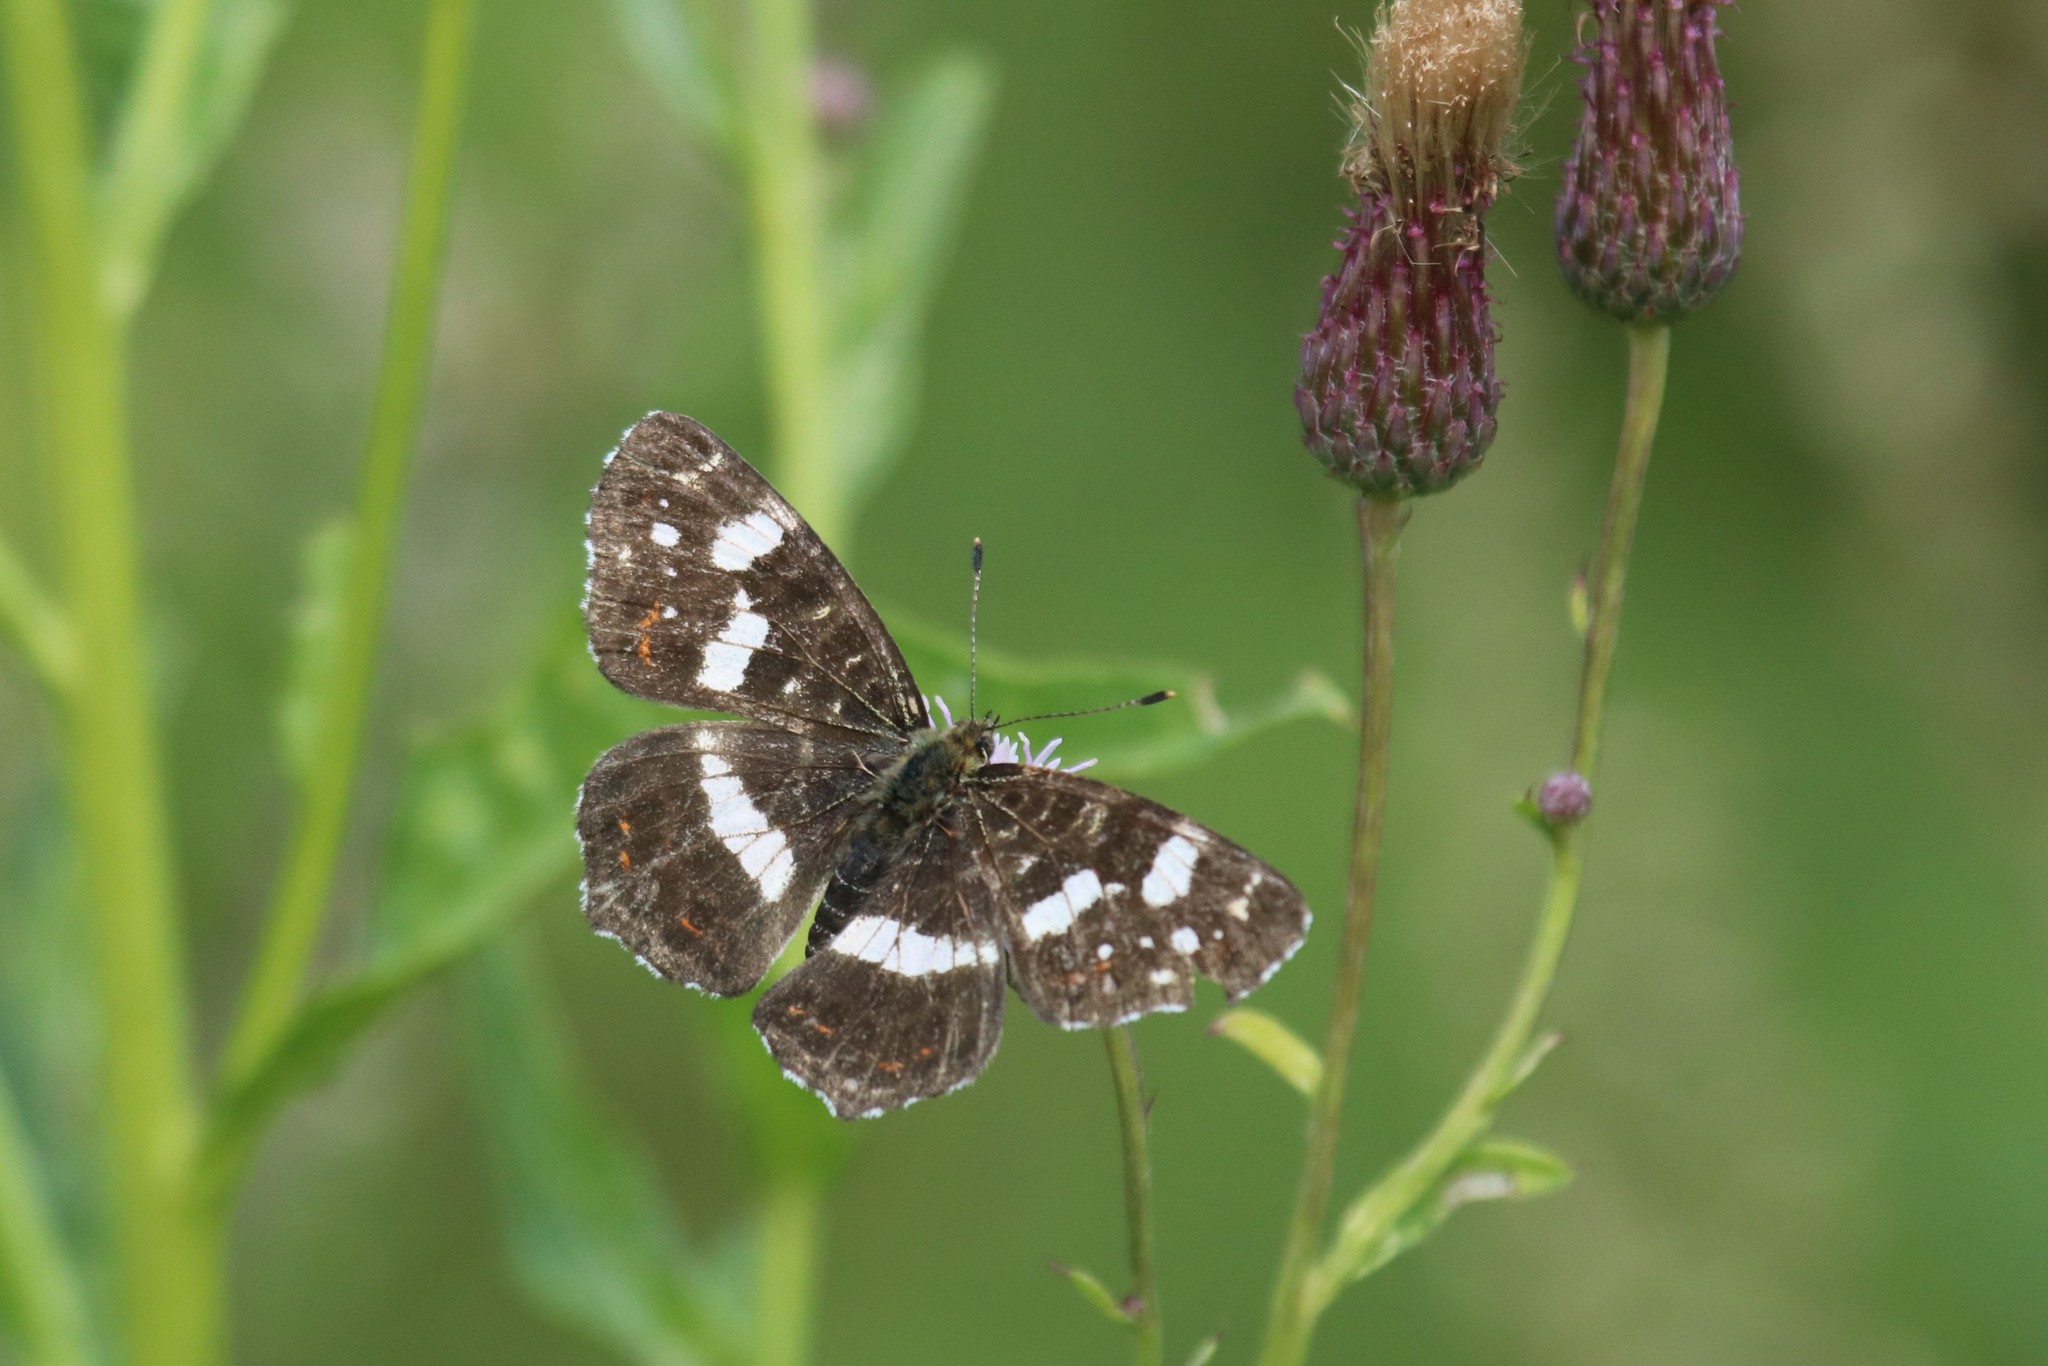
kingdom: Animalia
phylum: Arthropoda
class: Insecta
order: Lepidoptera
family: Nymphalidae
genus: Araschnia
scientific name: Araschnia levana
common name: Map butterfly
